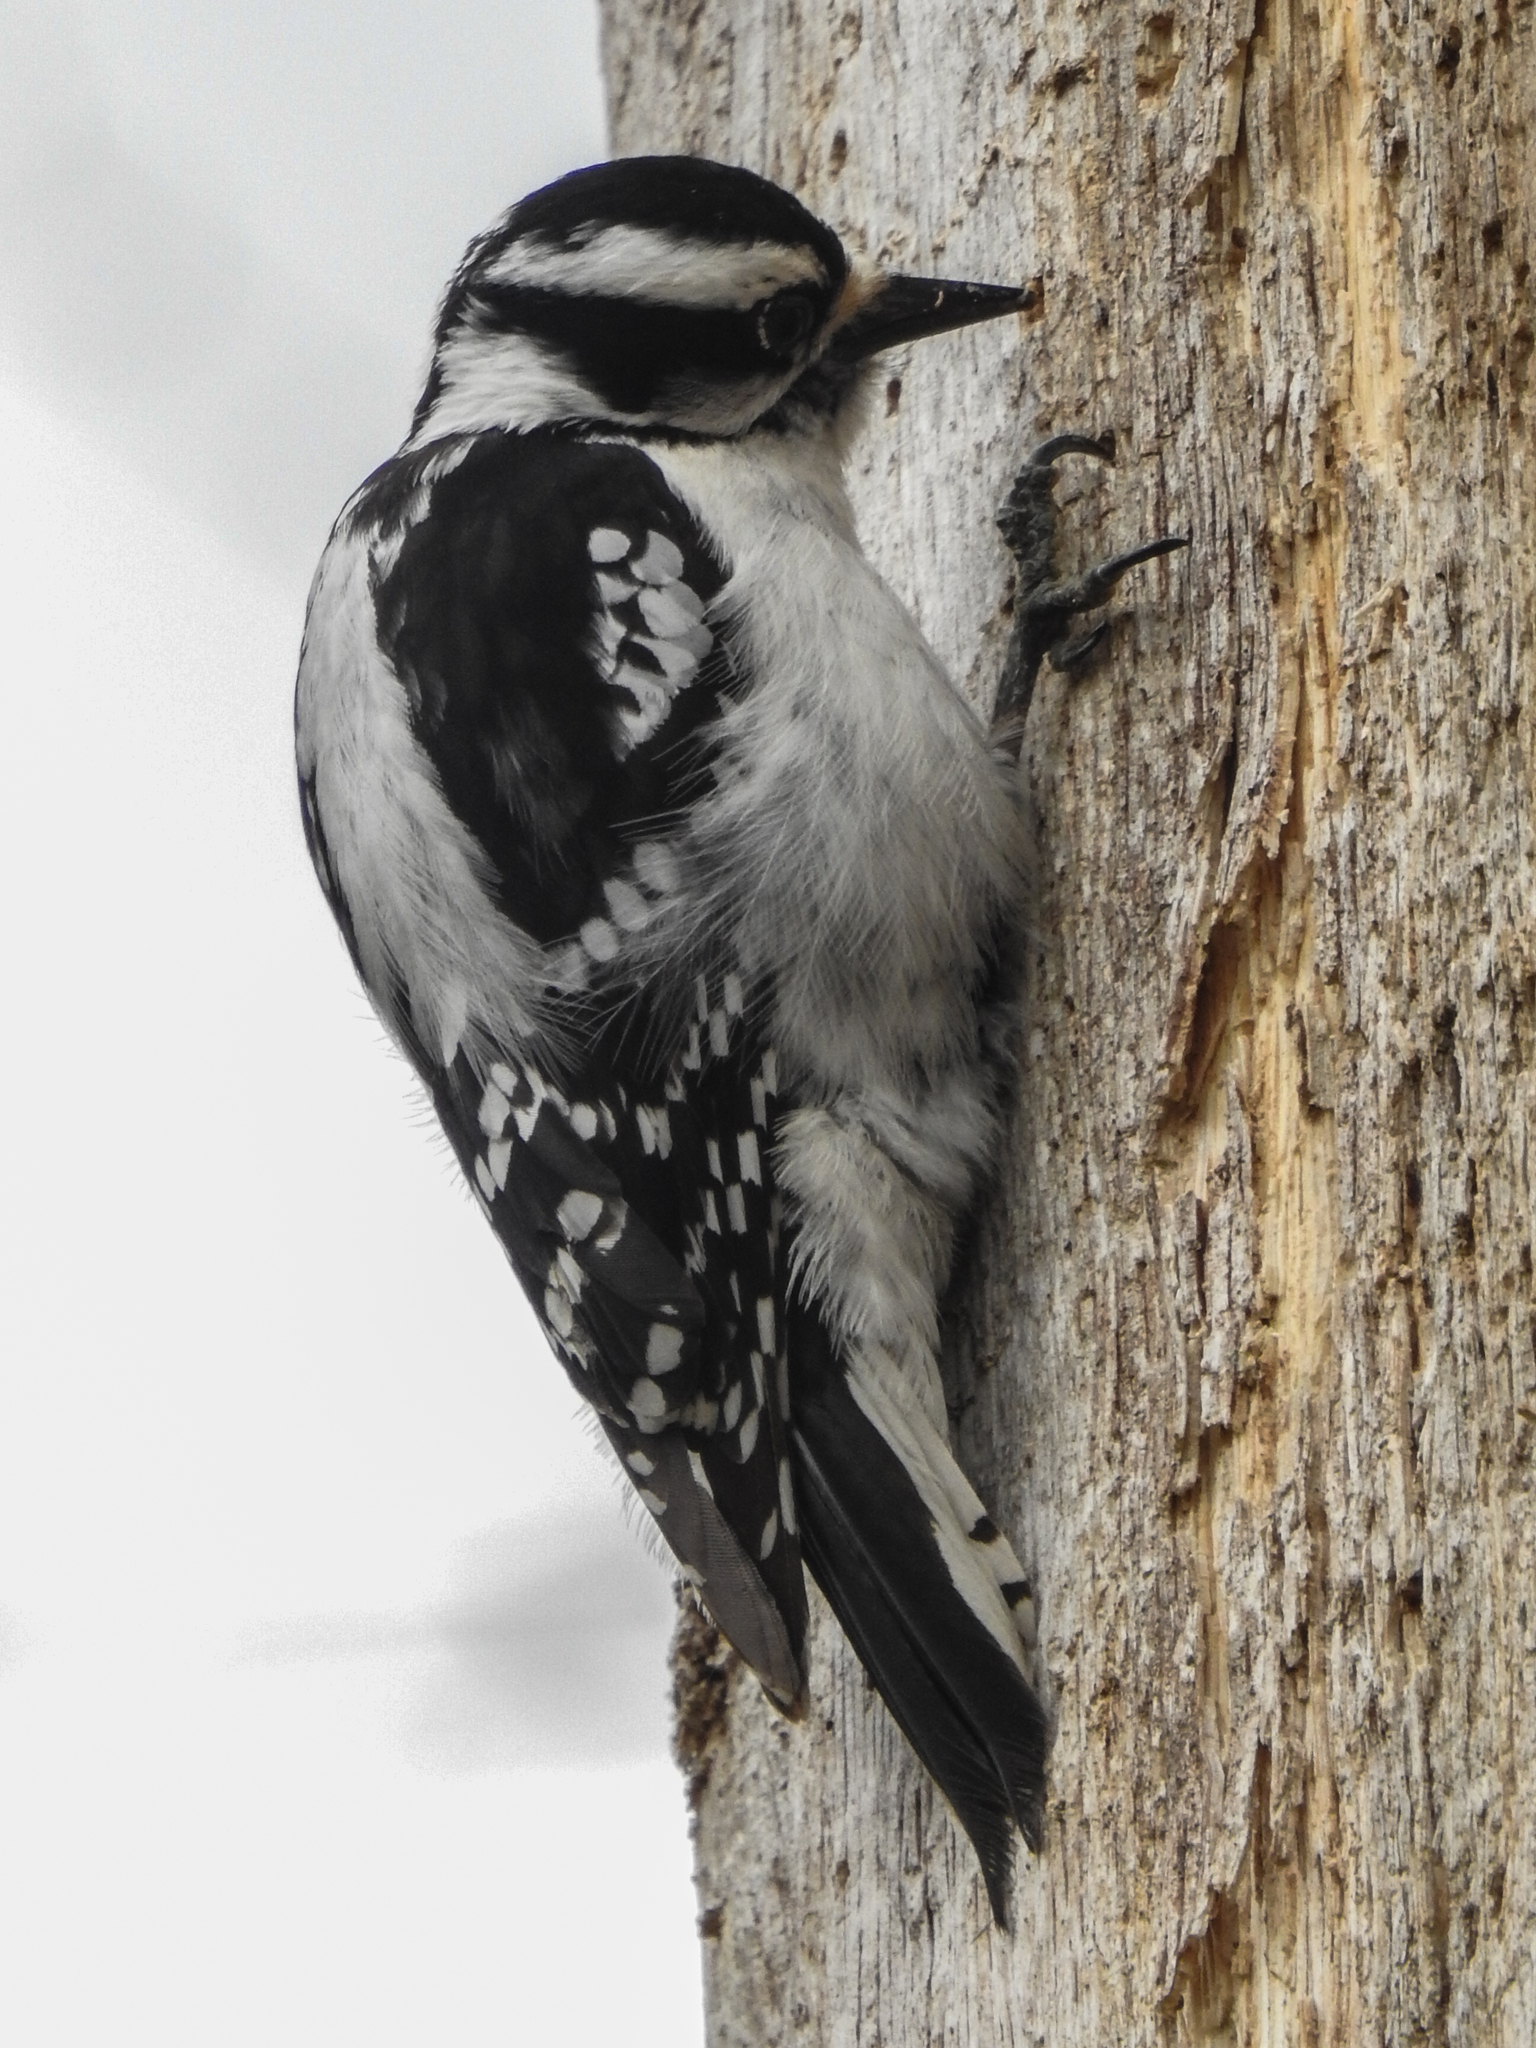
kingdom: Animalia
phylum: Chordata
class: Aves
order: Piciformes
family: Picidae
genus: Leuconotopicus
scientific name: Leuconotopicus villosus
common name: Hairy woodpecker
